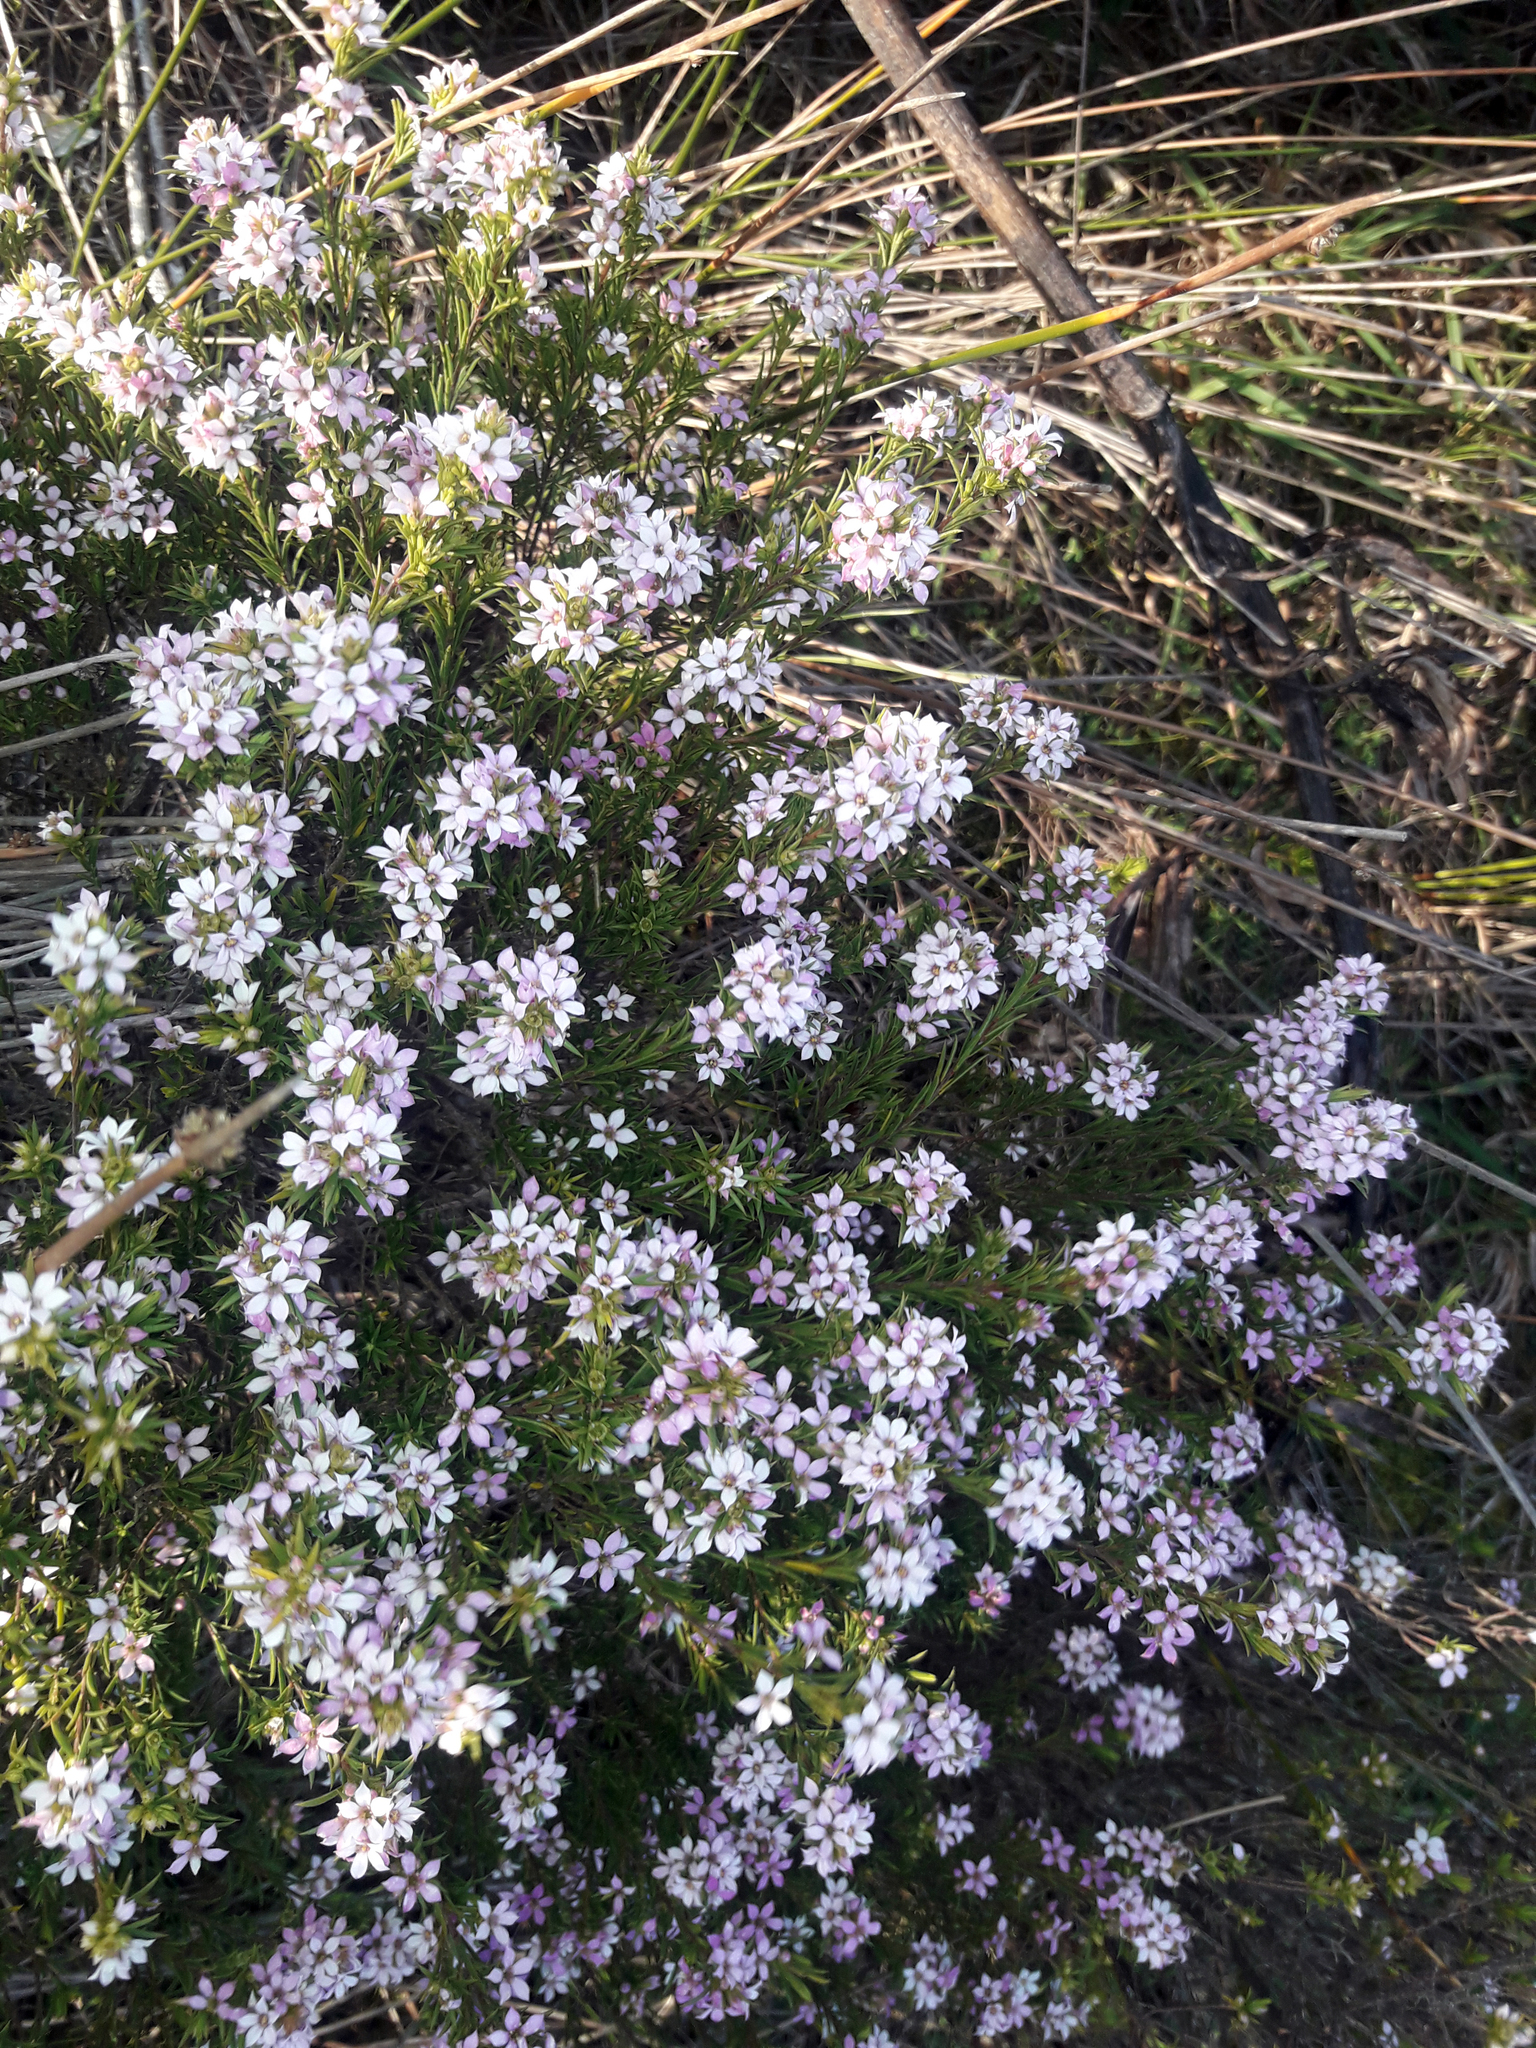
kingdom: Plantae
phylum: Tracheophyta
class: Magnoliopsida
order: Sapindales
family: Rutaceae
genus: Coleonema
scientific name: Coleonema pulchellum
